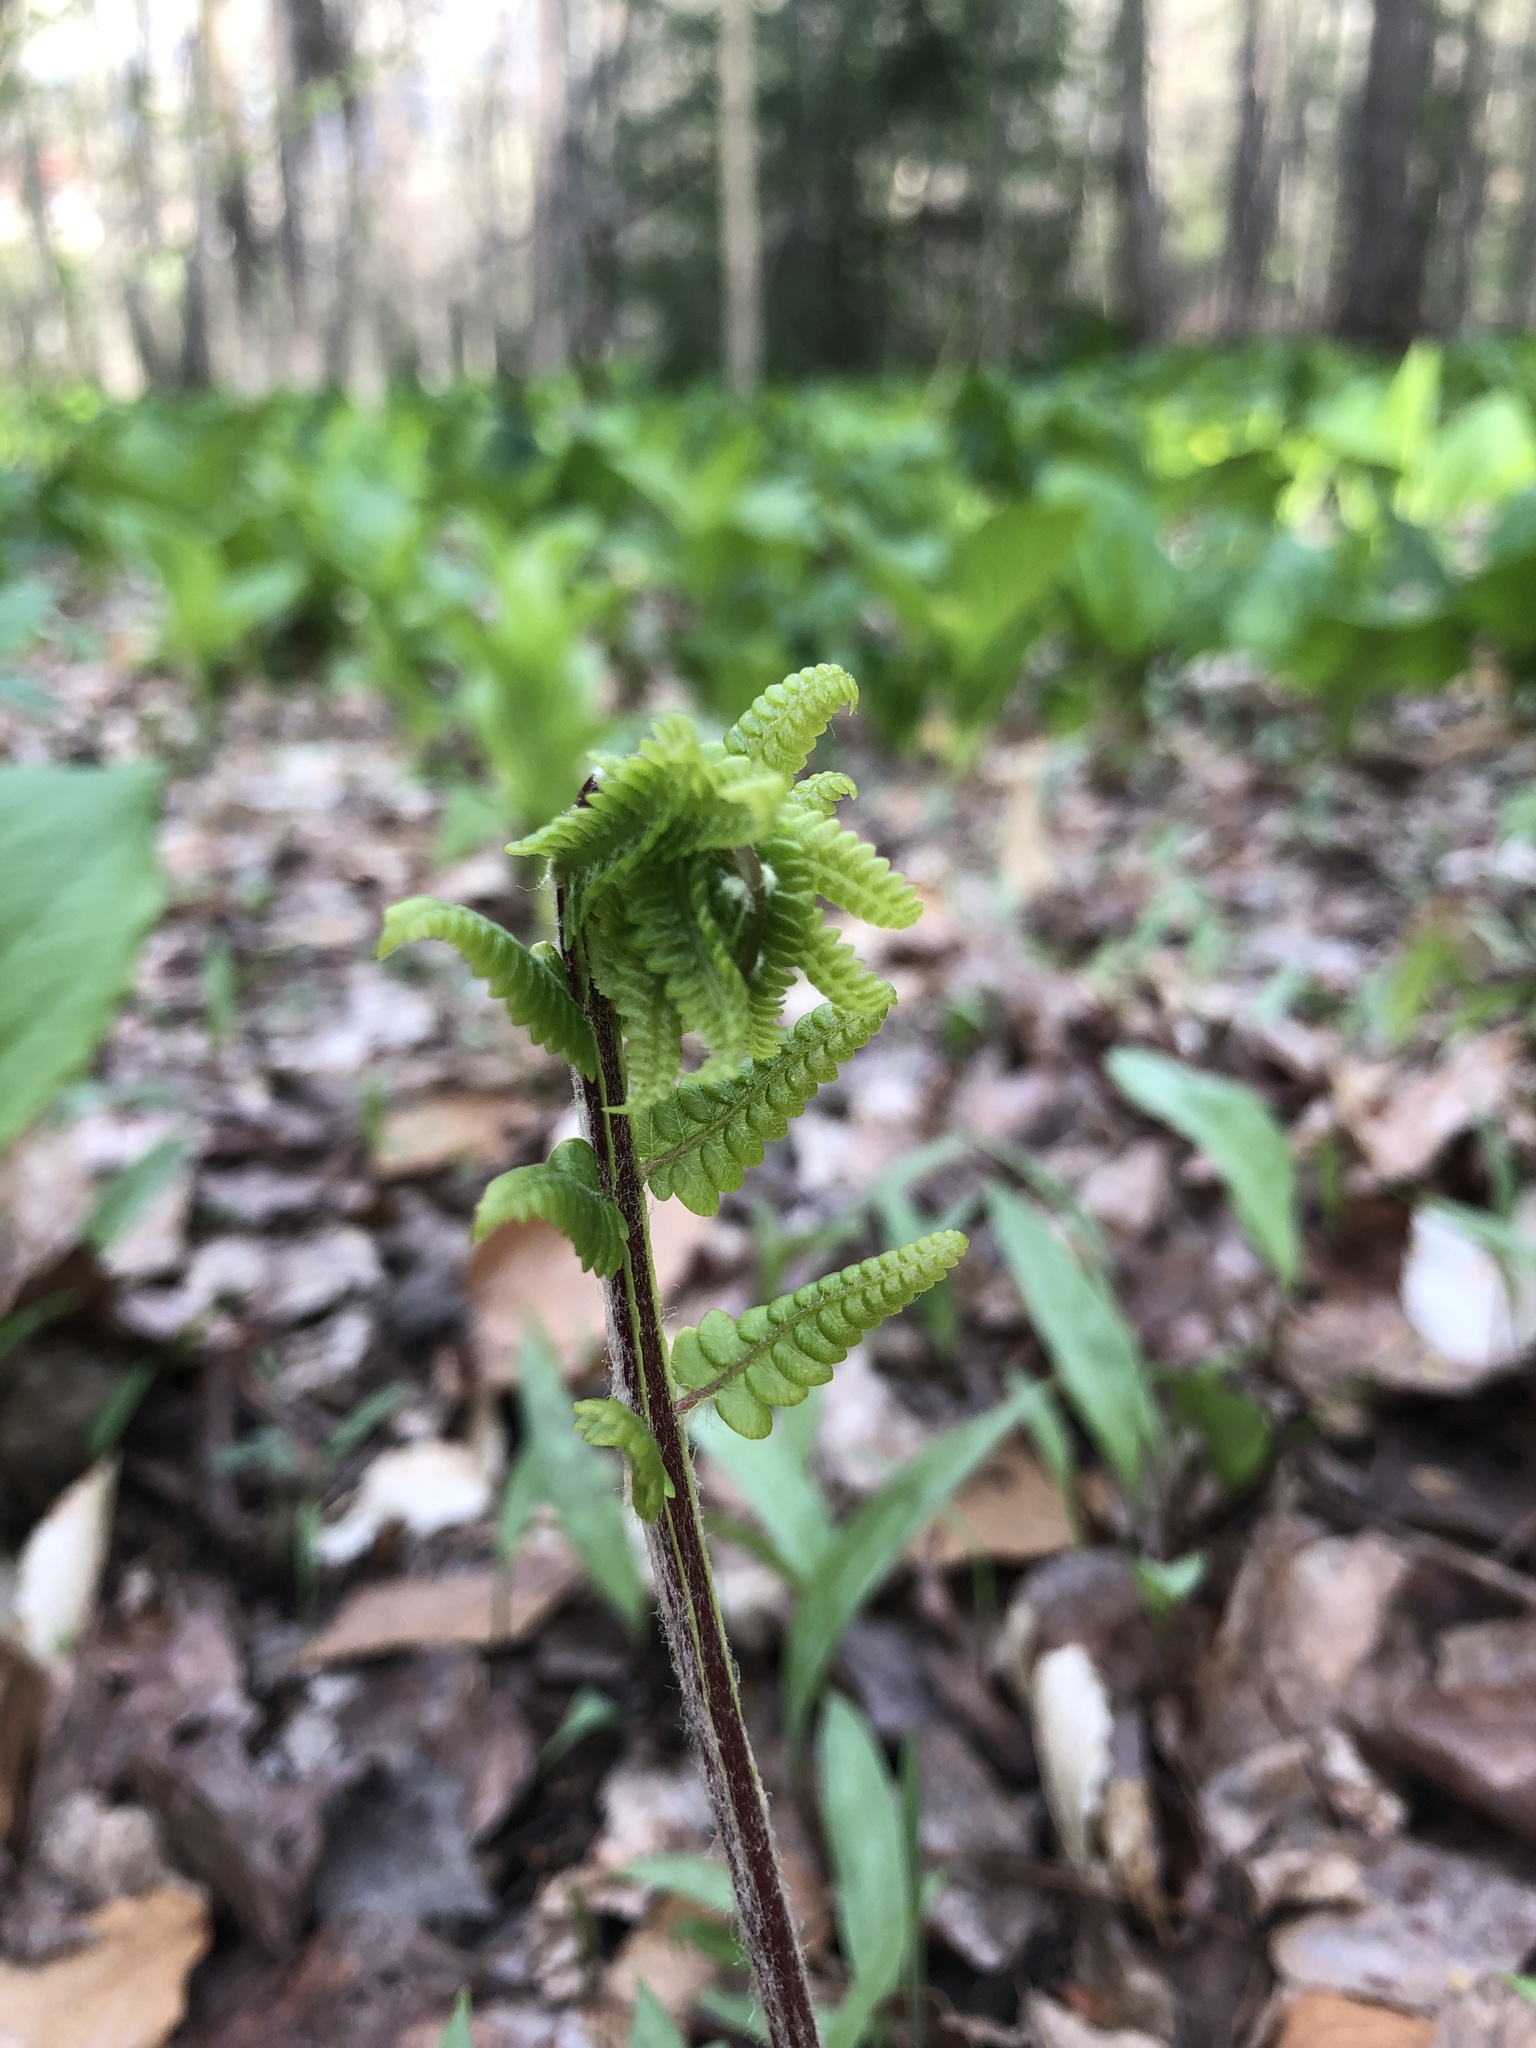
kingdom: Plantae
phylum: Tracheophyta
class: Polypodiopsida
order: Osmundales
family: Osmundaceae
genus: Osmundastrum
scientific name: Osmundastrum cinnamomeum
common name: Cinnamon fern
